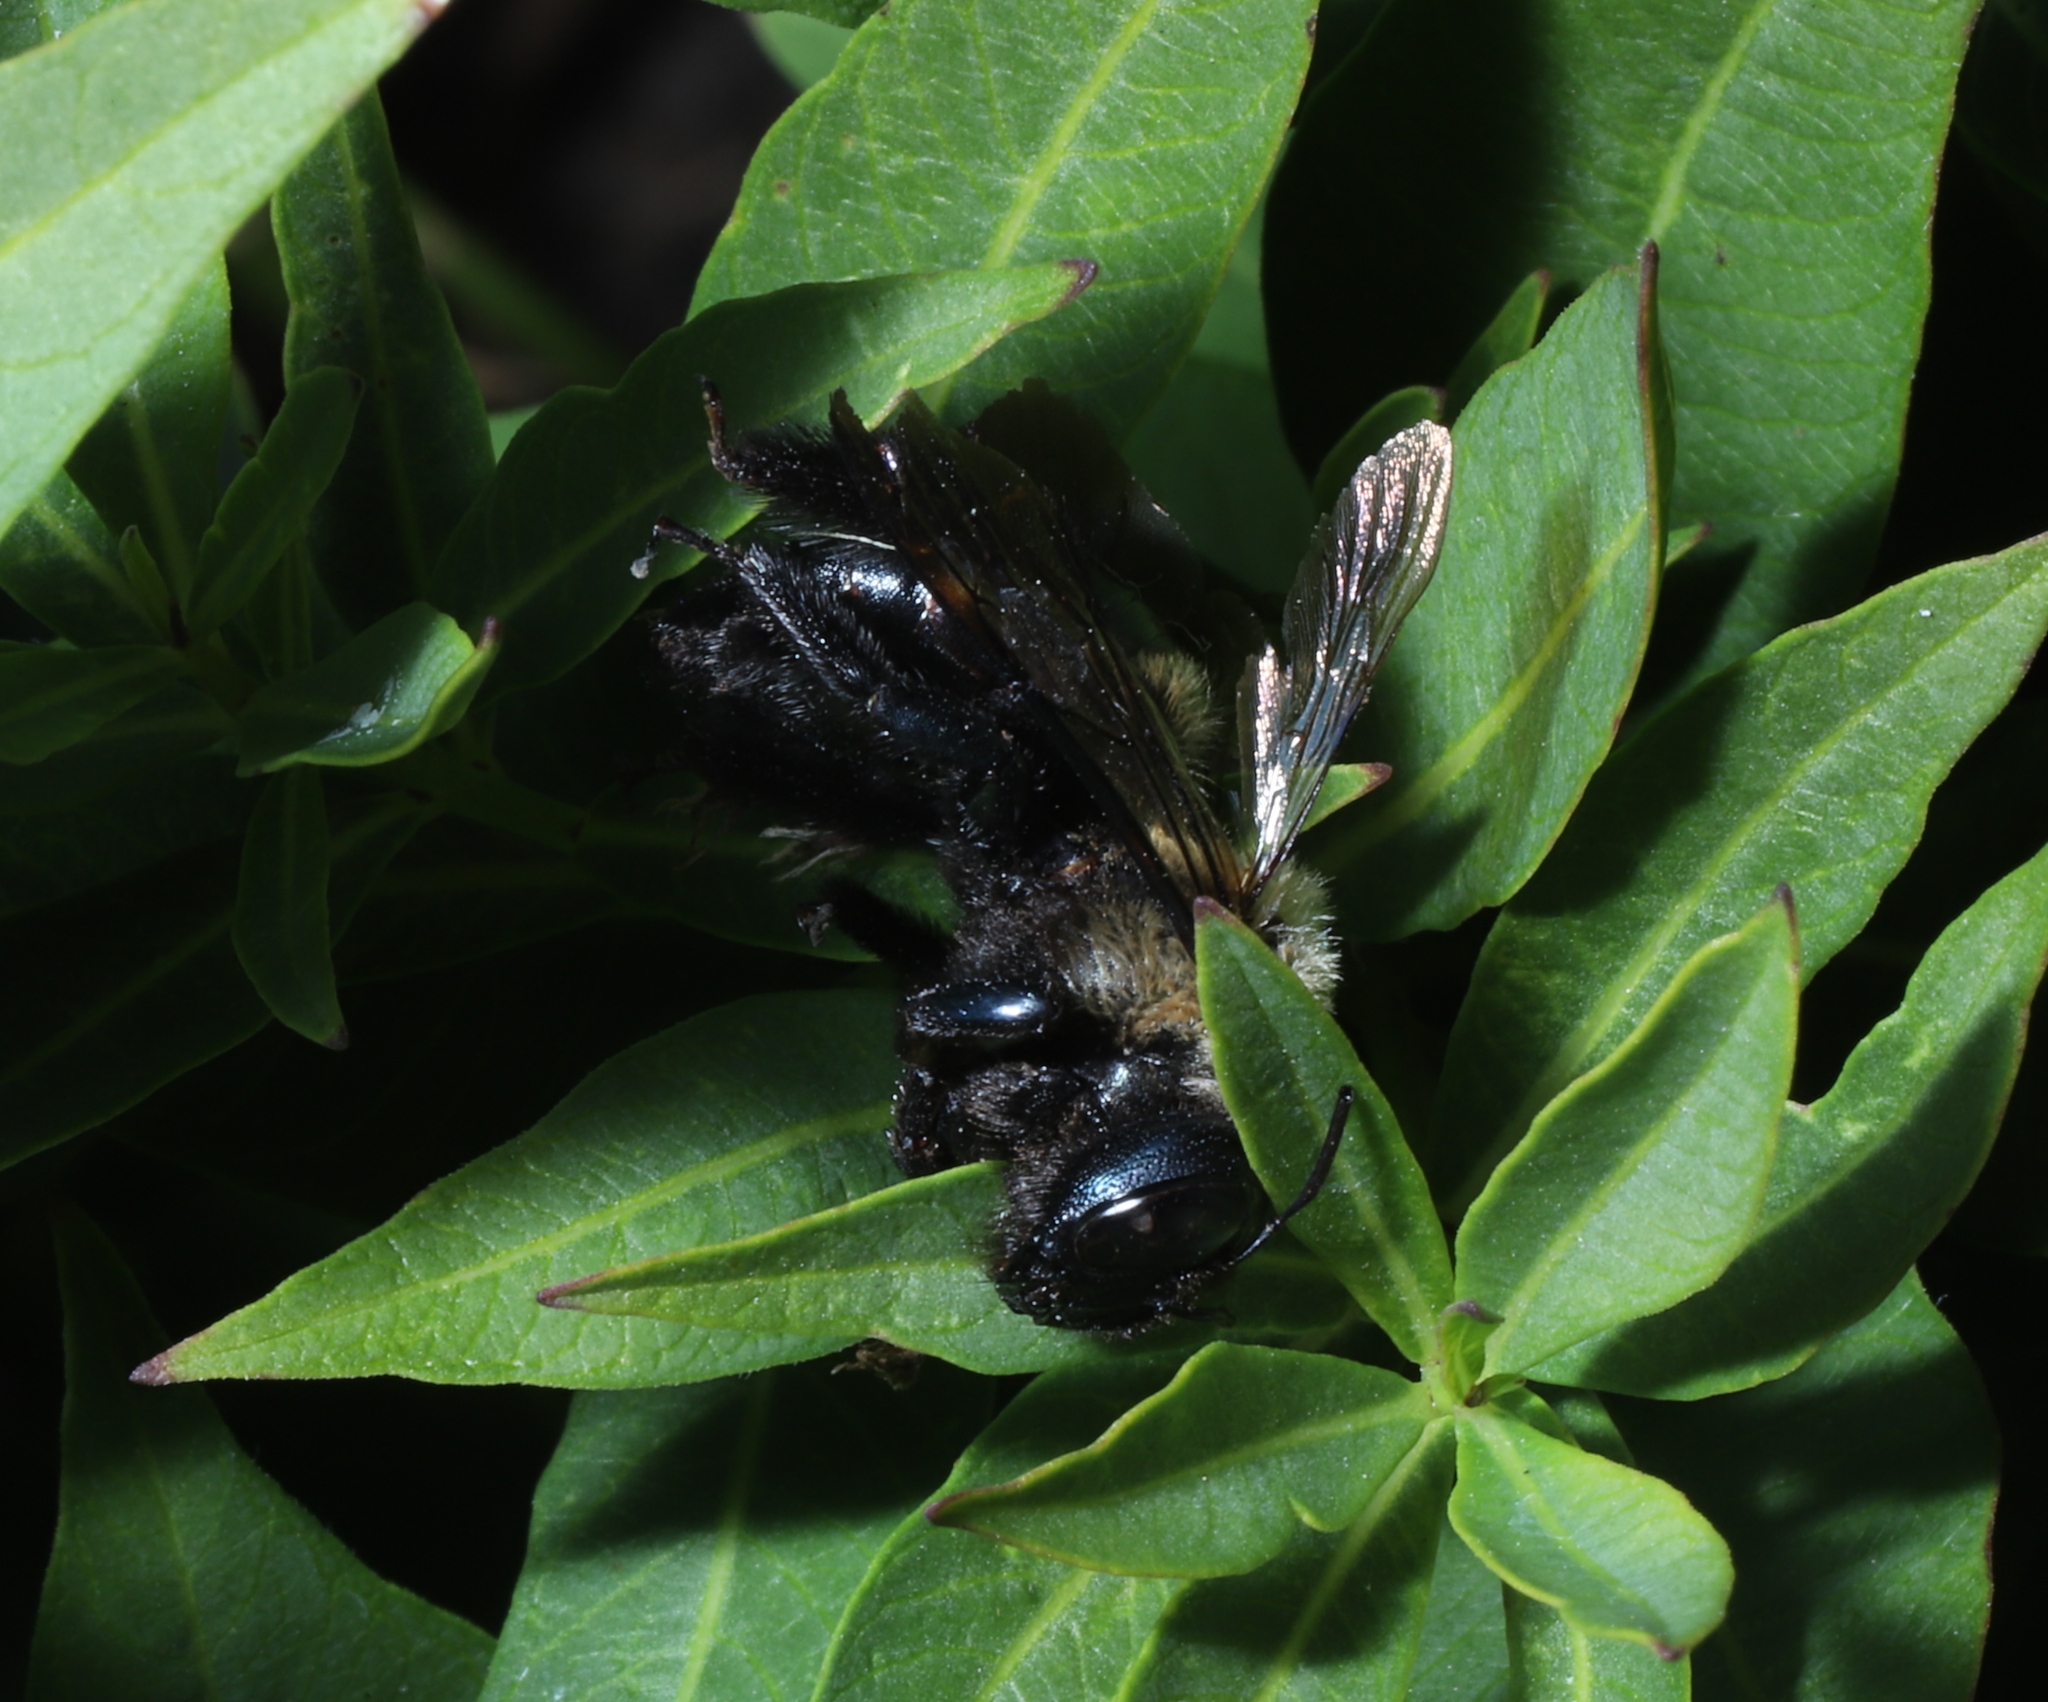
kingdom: Animalia
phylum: Arthropoda
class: Insecta
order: Hymenoptera
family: Apidae
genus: Xylocopa
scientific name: Xylocopa virginica
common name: Carpenter bee
